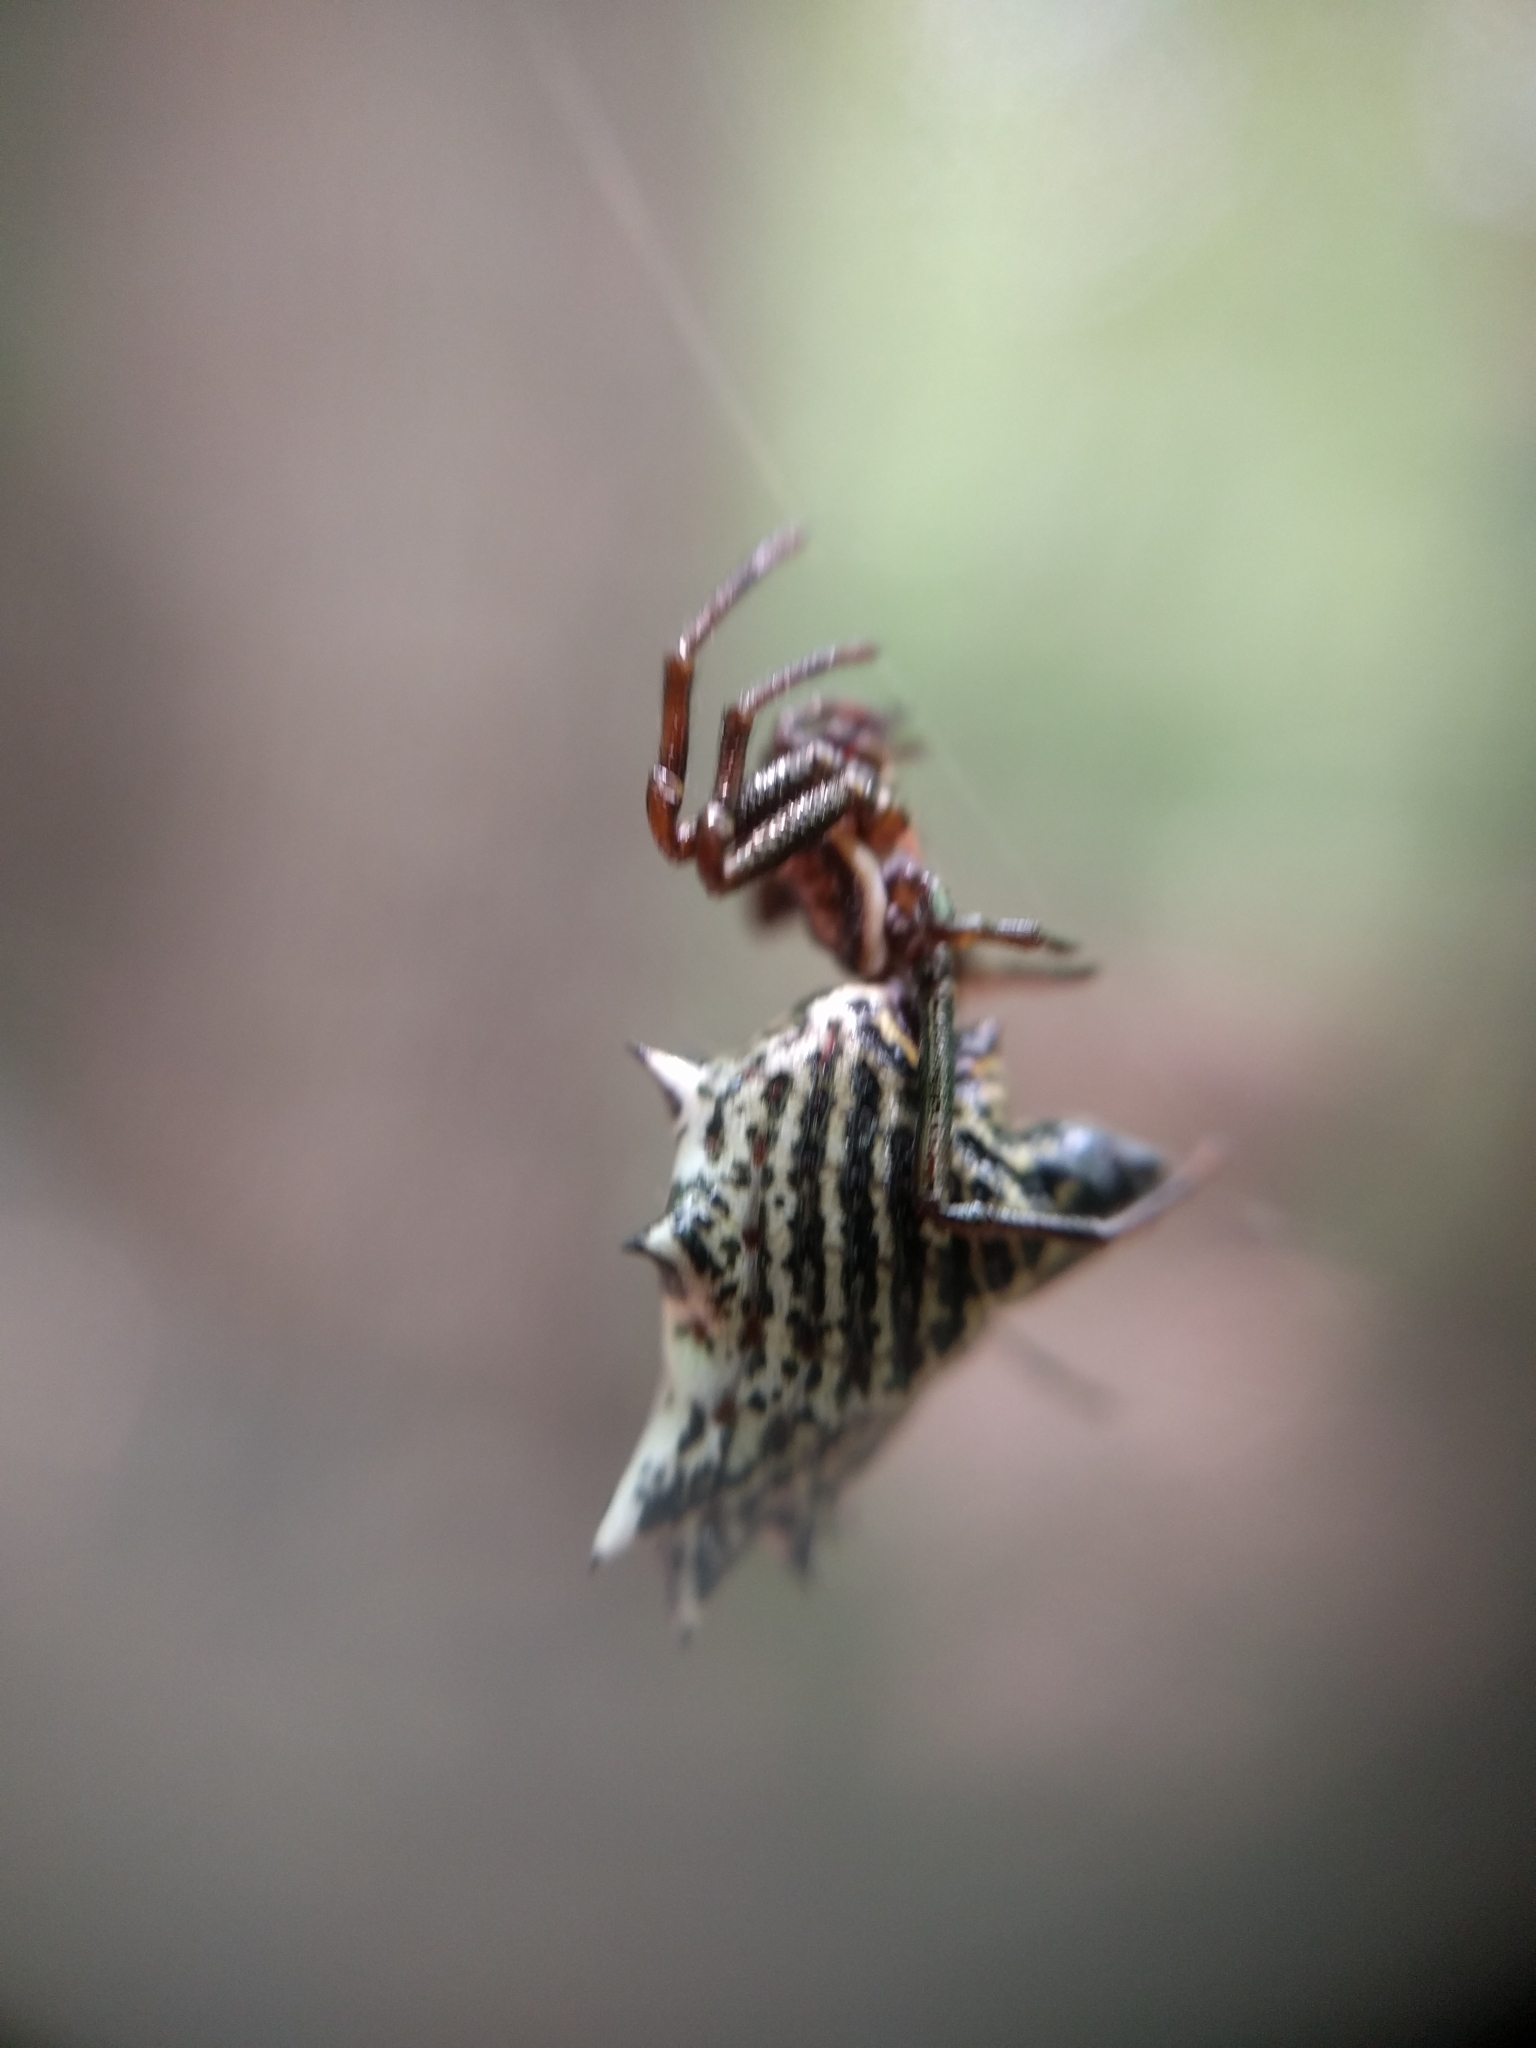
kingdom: Animalia
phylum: Arthropoda
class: Arachnida
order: Araneae
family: Araneidae
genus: Micrathena
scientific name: Micrathena gracilis
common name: Orb weavers
